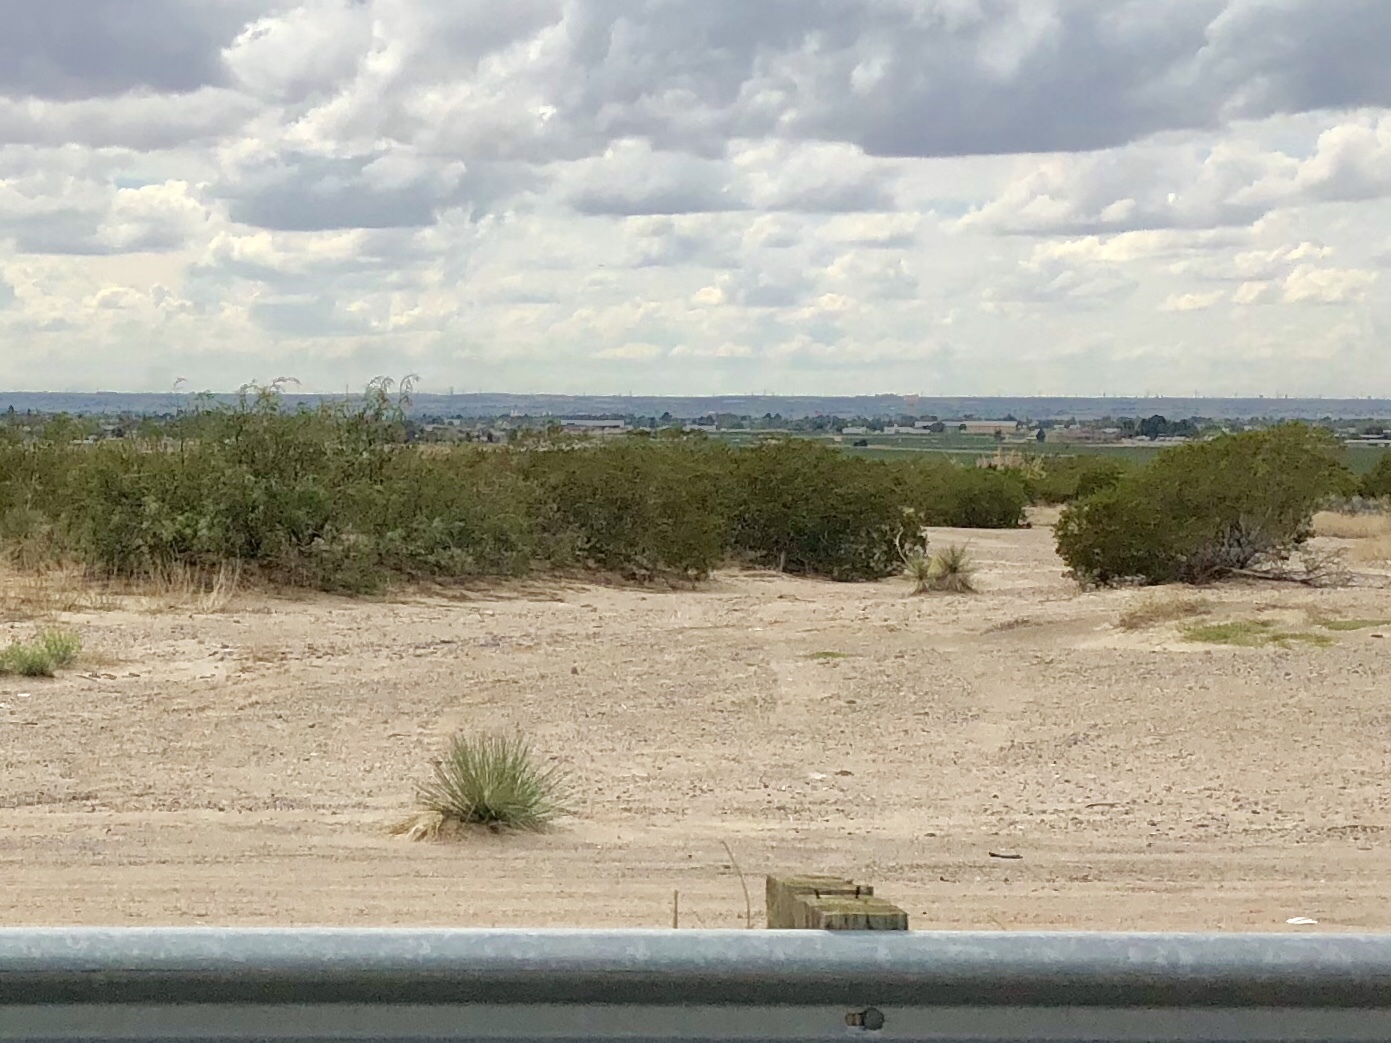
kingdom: Plantae
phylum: Tracheophyta
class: Magnoliopsida
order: Zygophyllales
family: Zygophyllaceae
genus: Larrea
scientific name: Larrea tridentata
